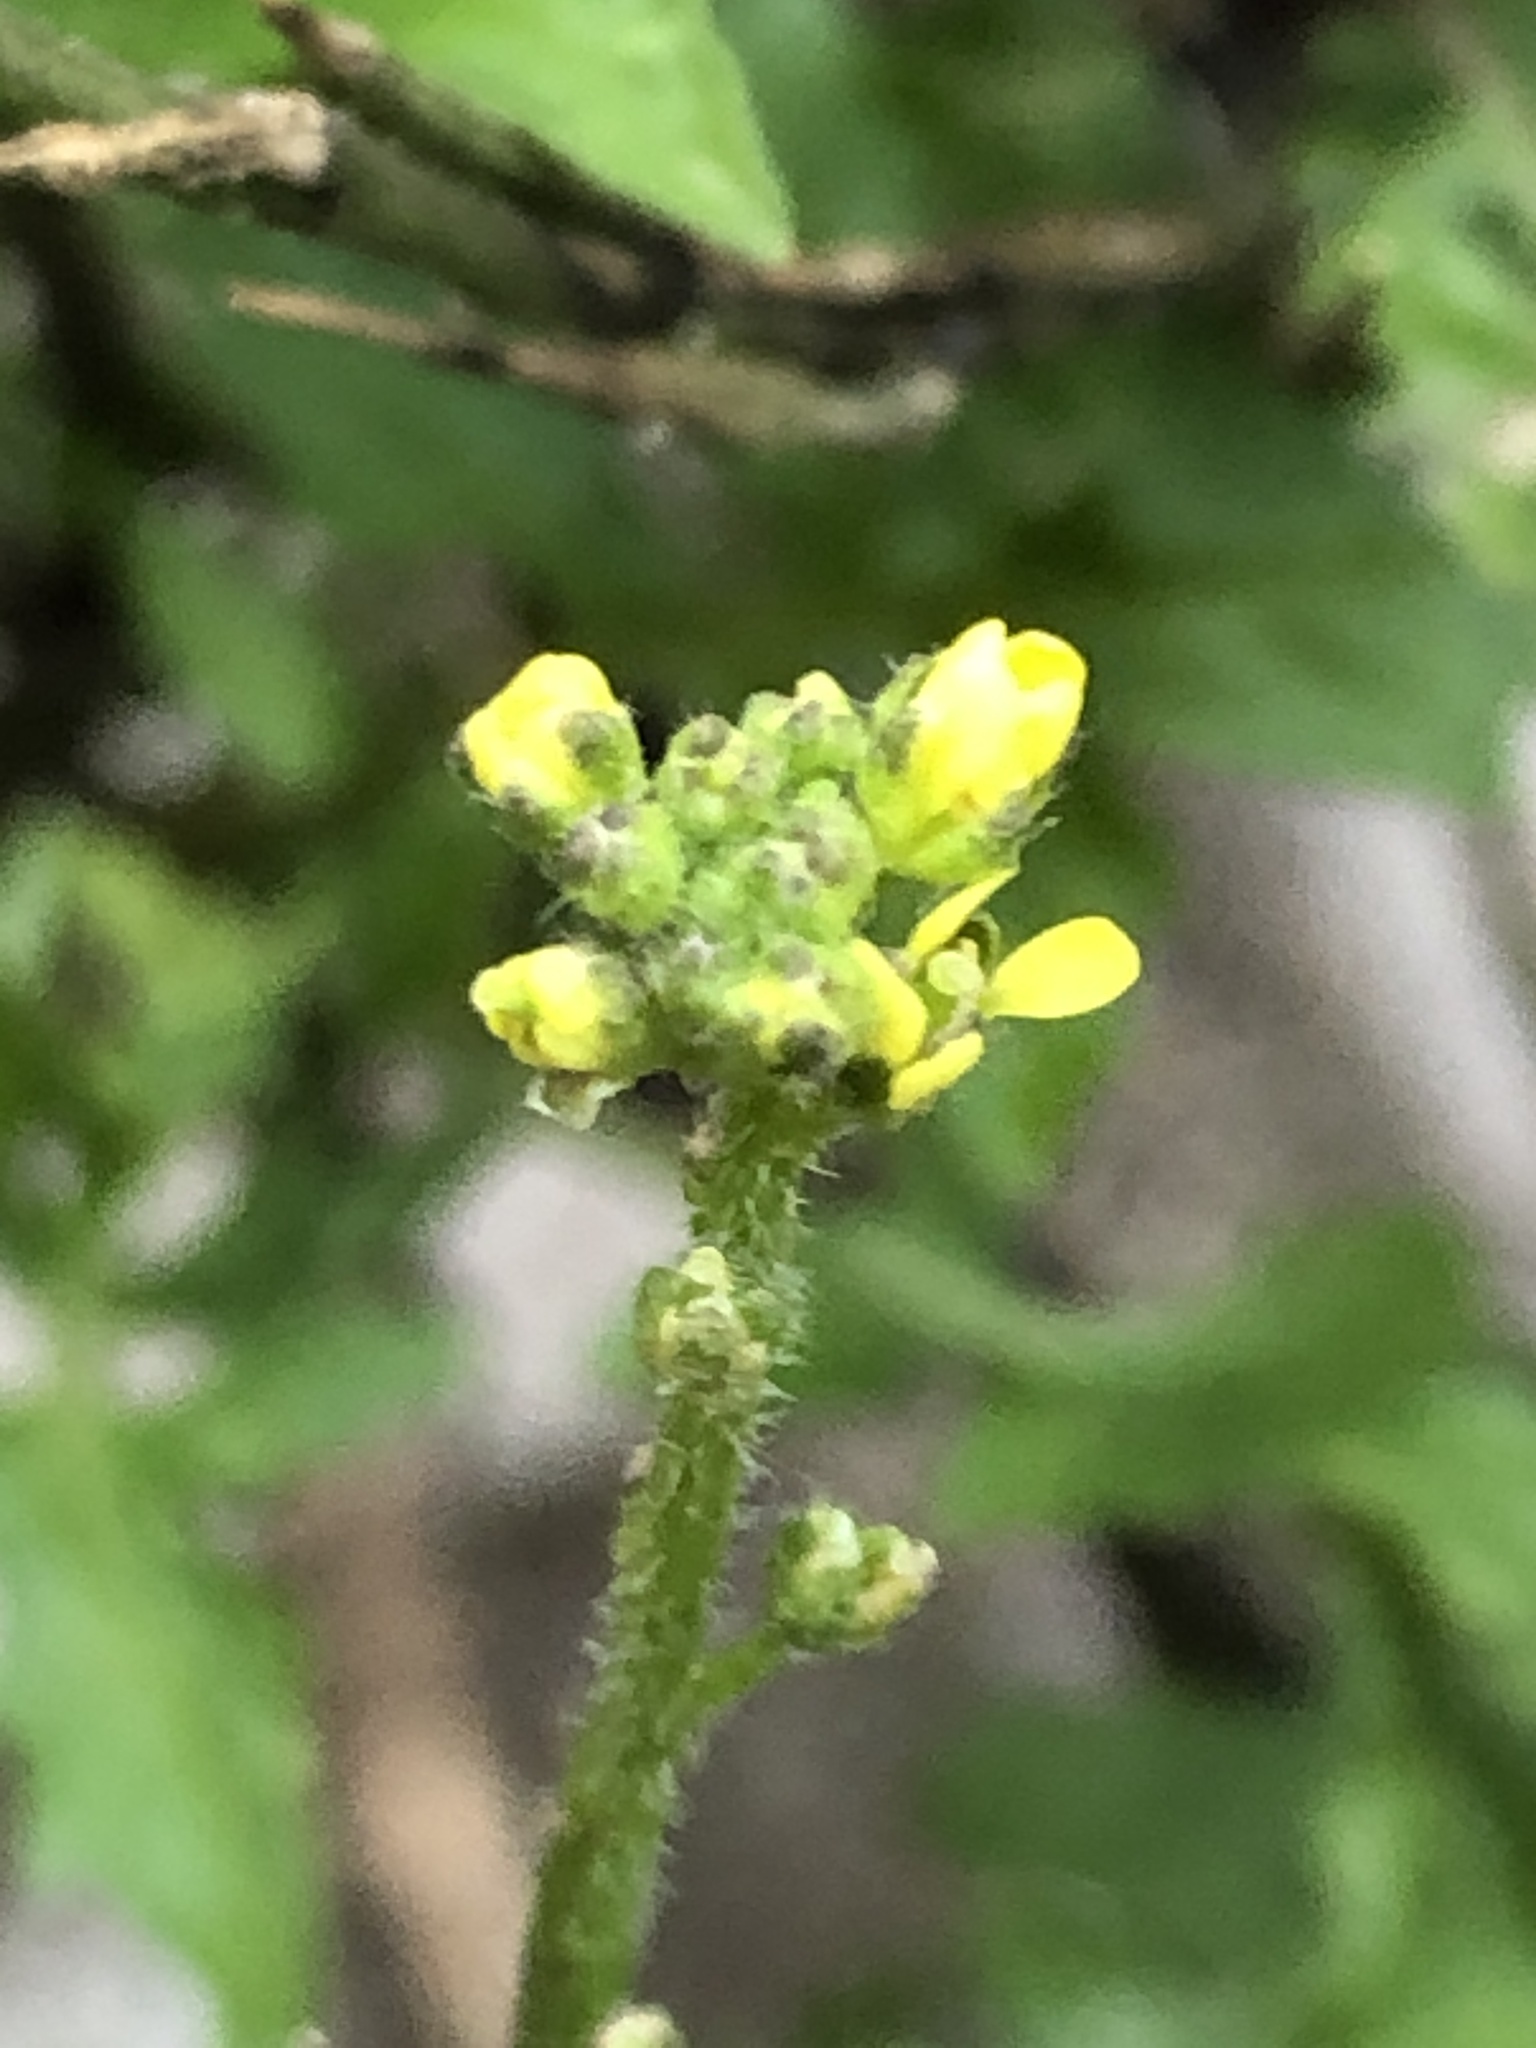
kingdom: Plantae
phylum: Tracheophyta
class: Magnoliopsida
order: Brassicales
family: Brassicaceae
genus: Sisymbrium
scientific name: Sisymbrium officinale
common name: Hedge mustard
